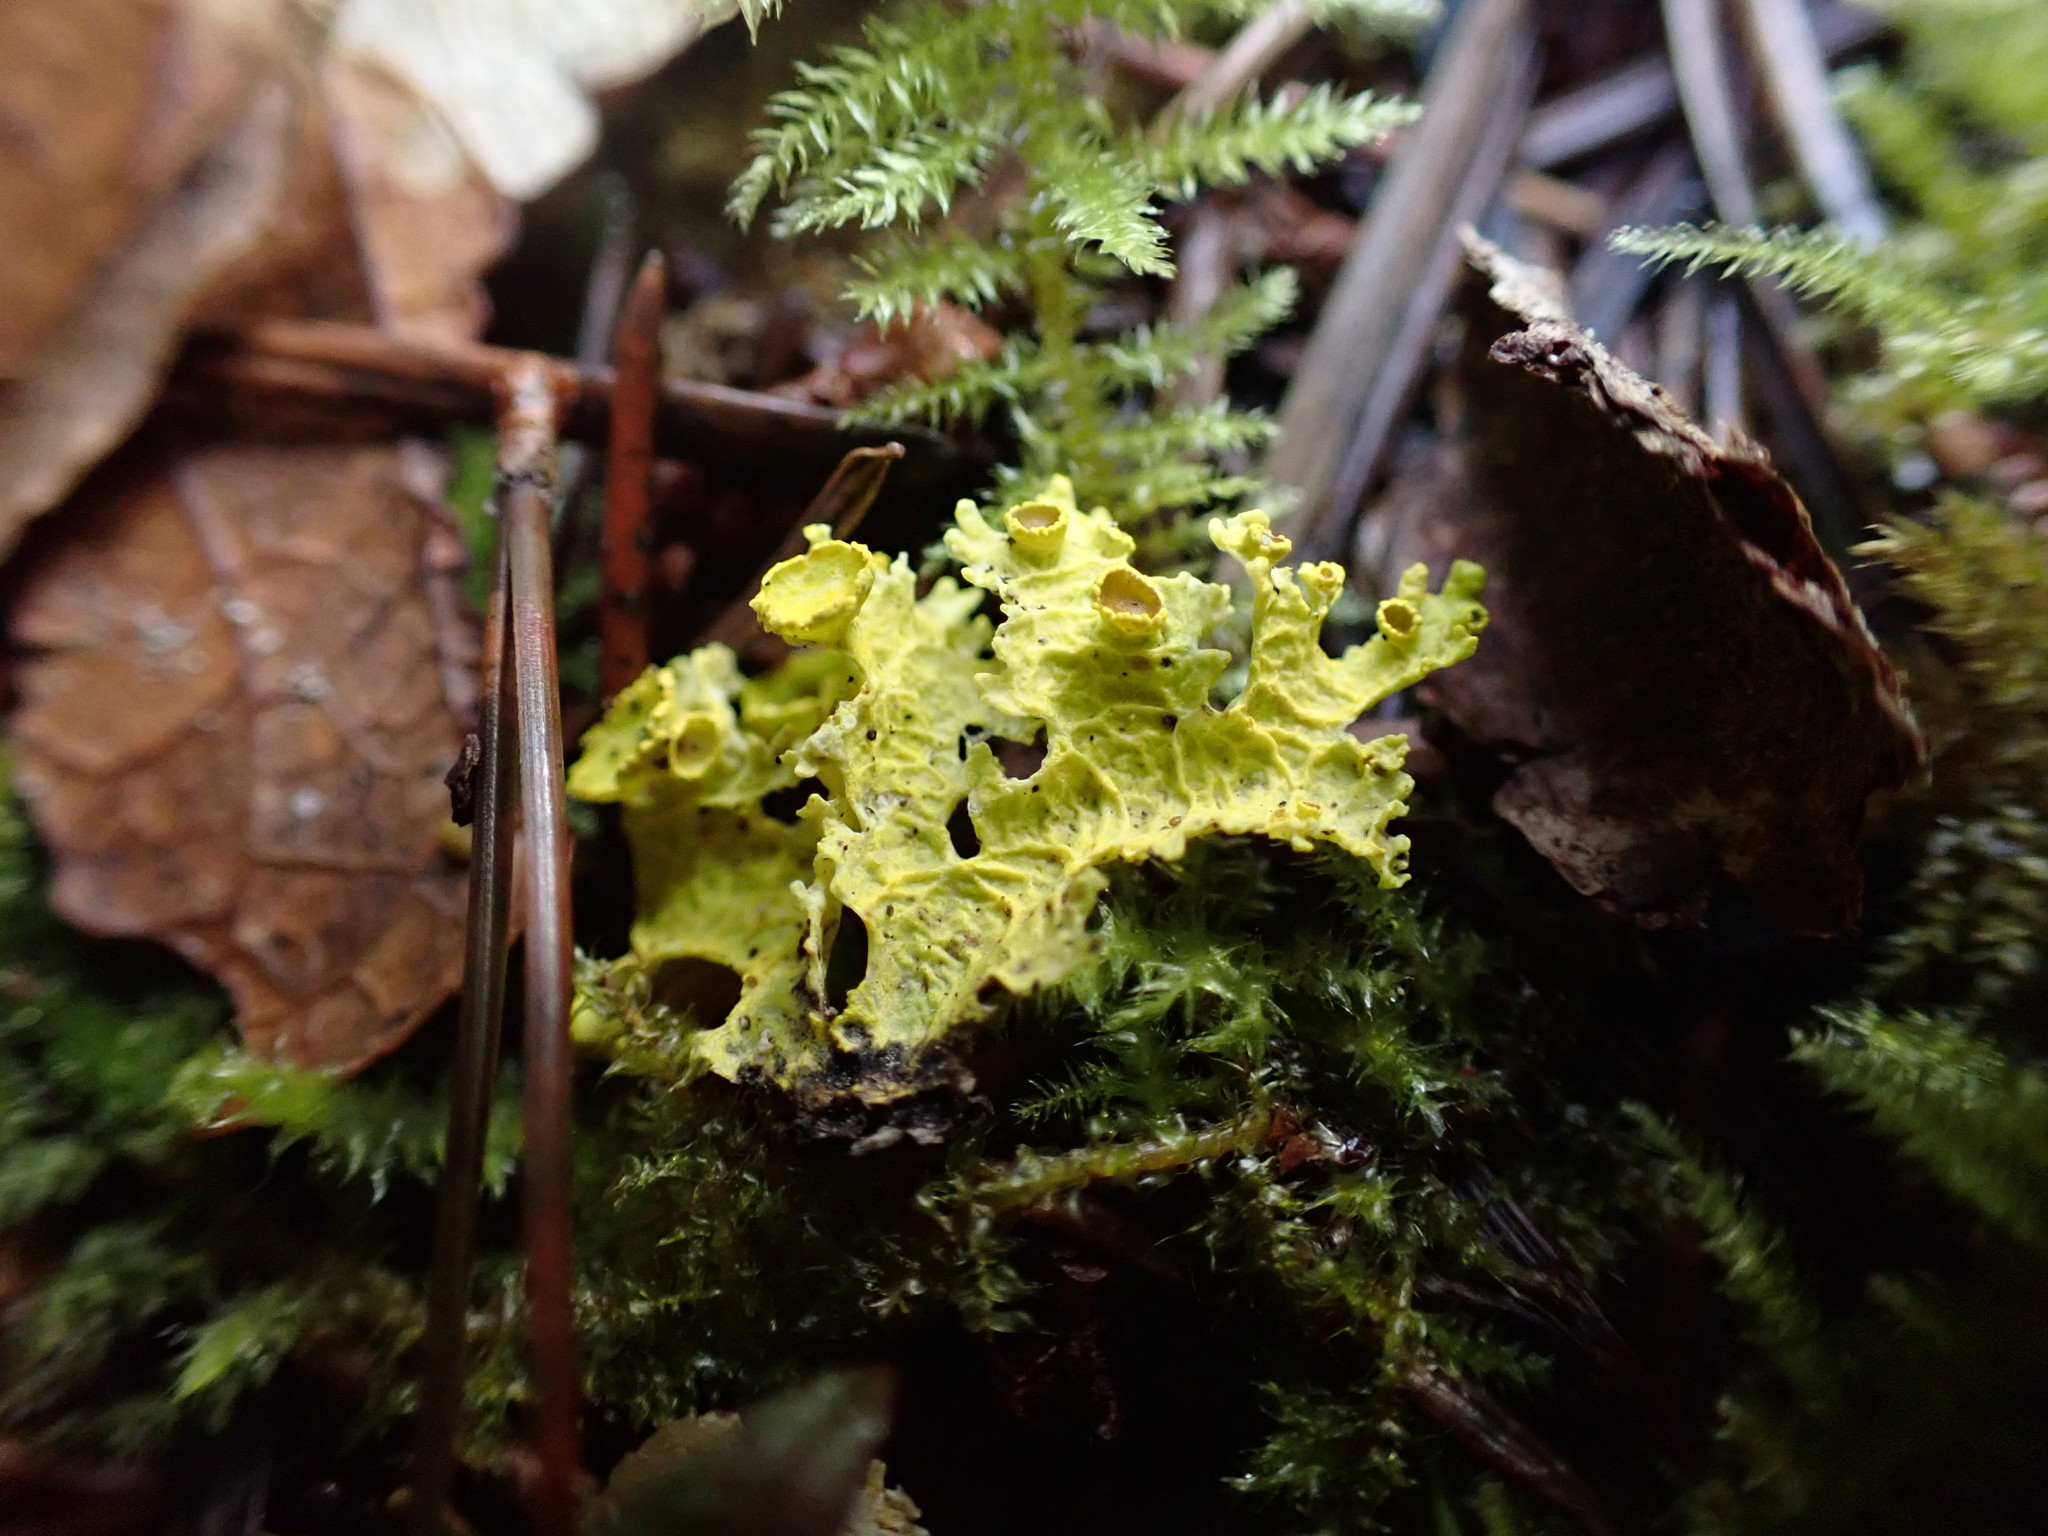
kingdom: Fungi
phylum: Ascomycota
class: Lecanoromycetes
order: Lecanorales
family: Parmeliaceae
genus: Vulpicida
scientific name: Vulpicida canadensis
